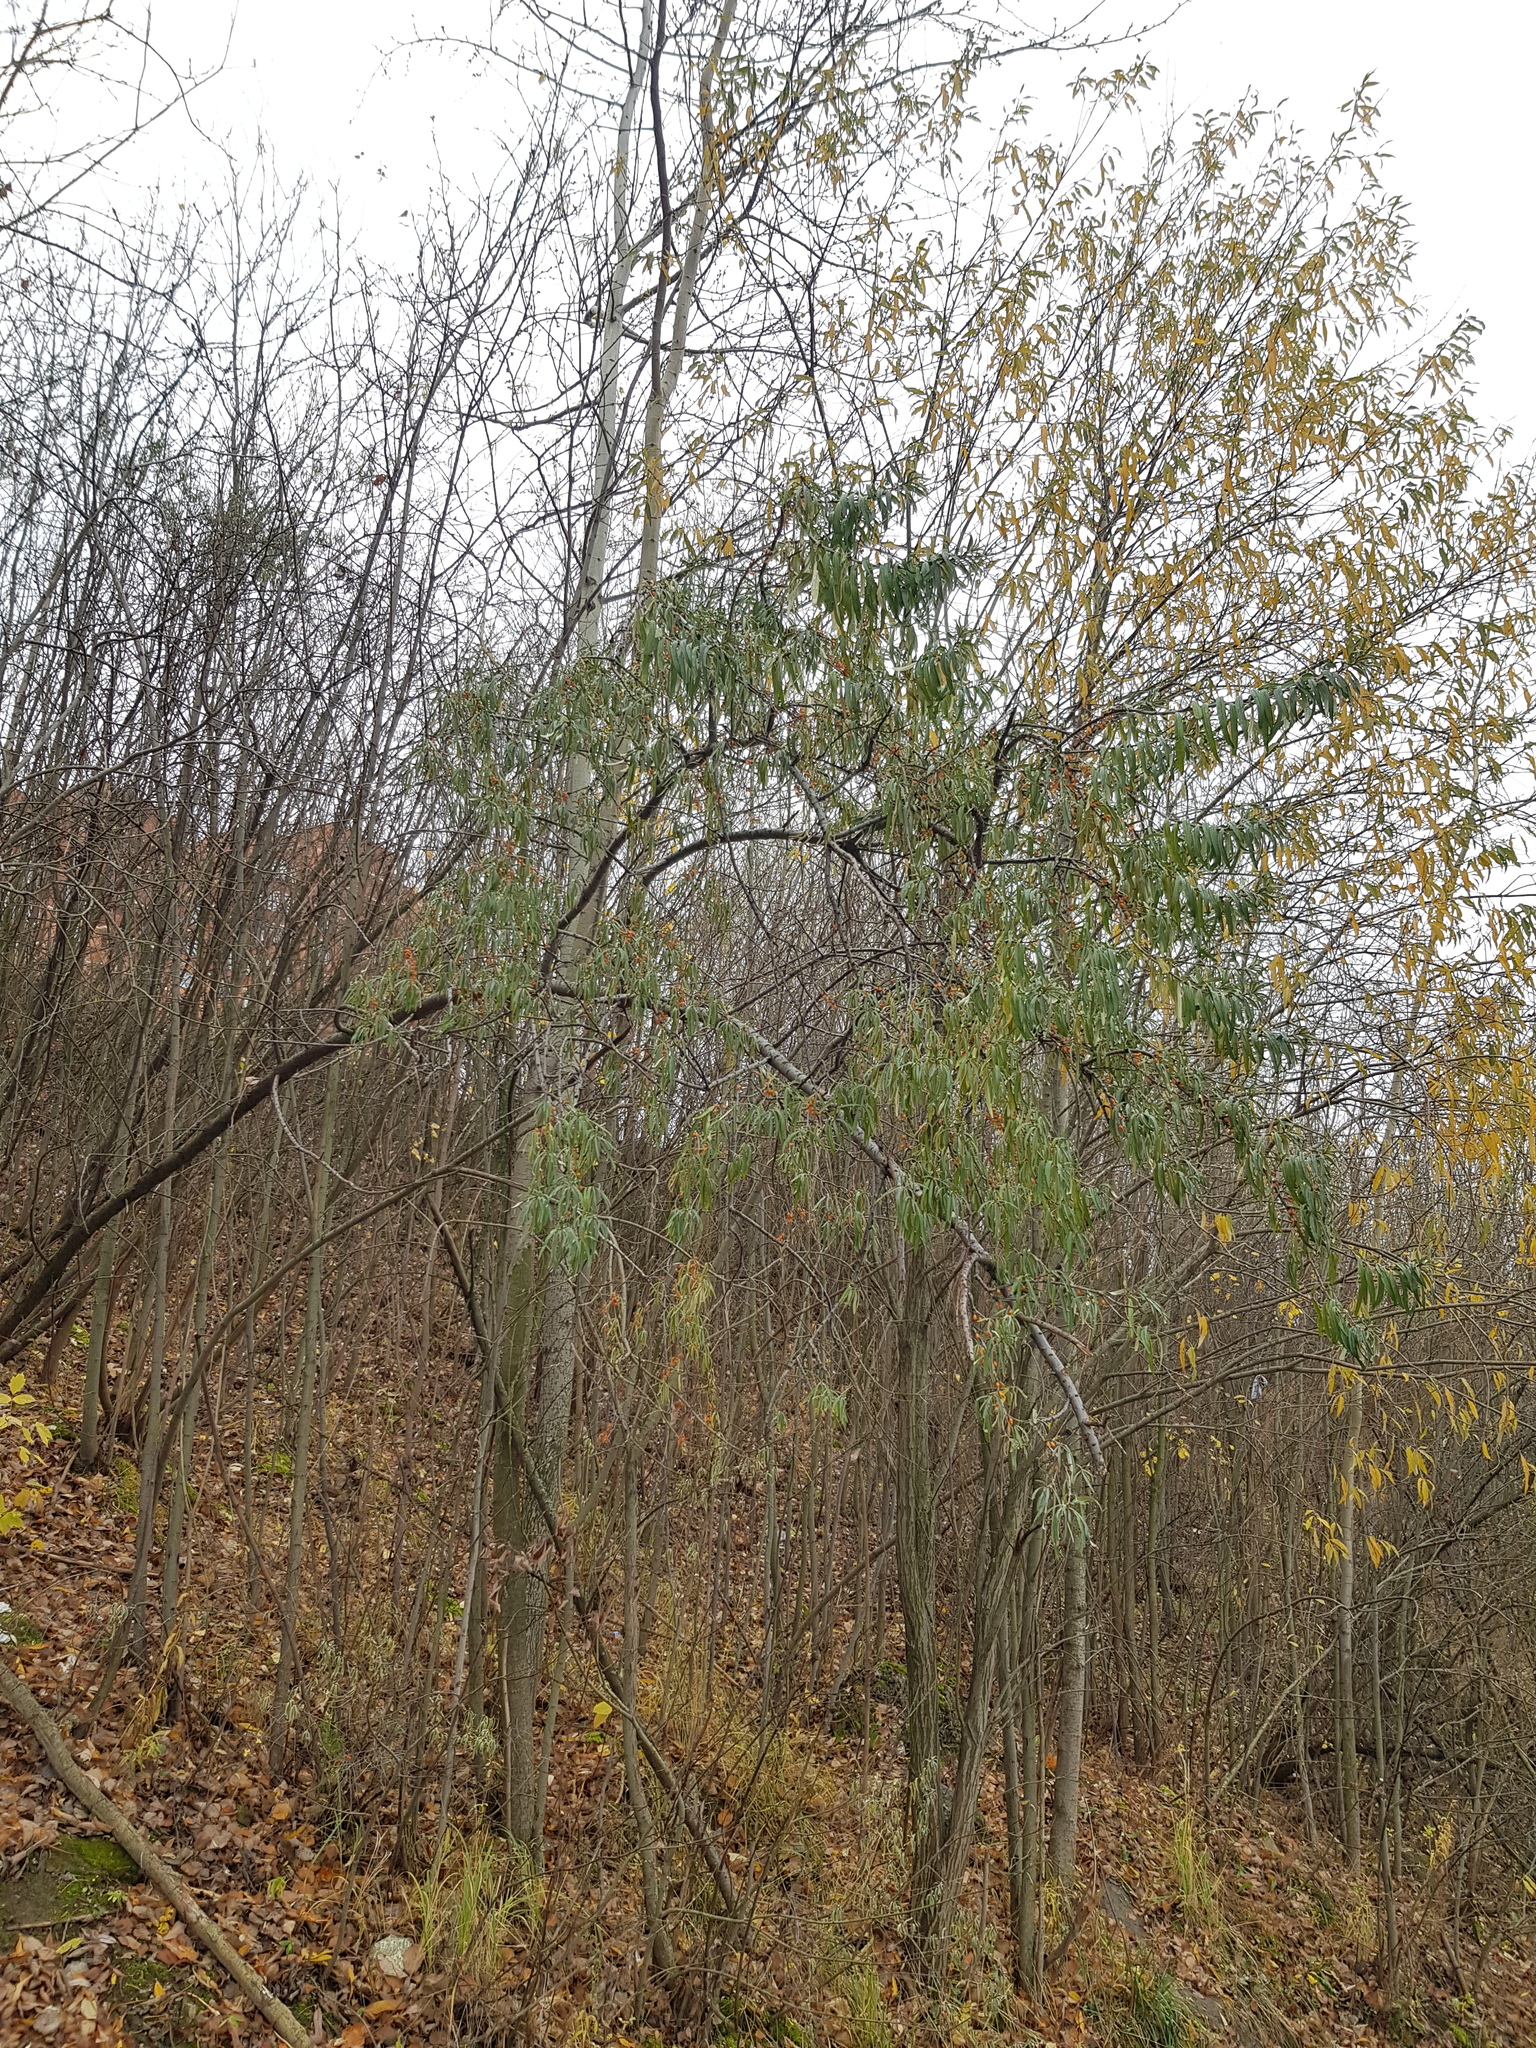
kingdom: Plantae
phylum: Tracheophyta
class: Magnoliopsida
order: Rosales
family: Elaeagnaceae
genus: Hippophae
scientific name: Hippophae rhamnoides
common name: Sea-buckthorn
